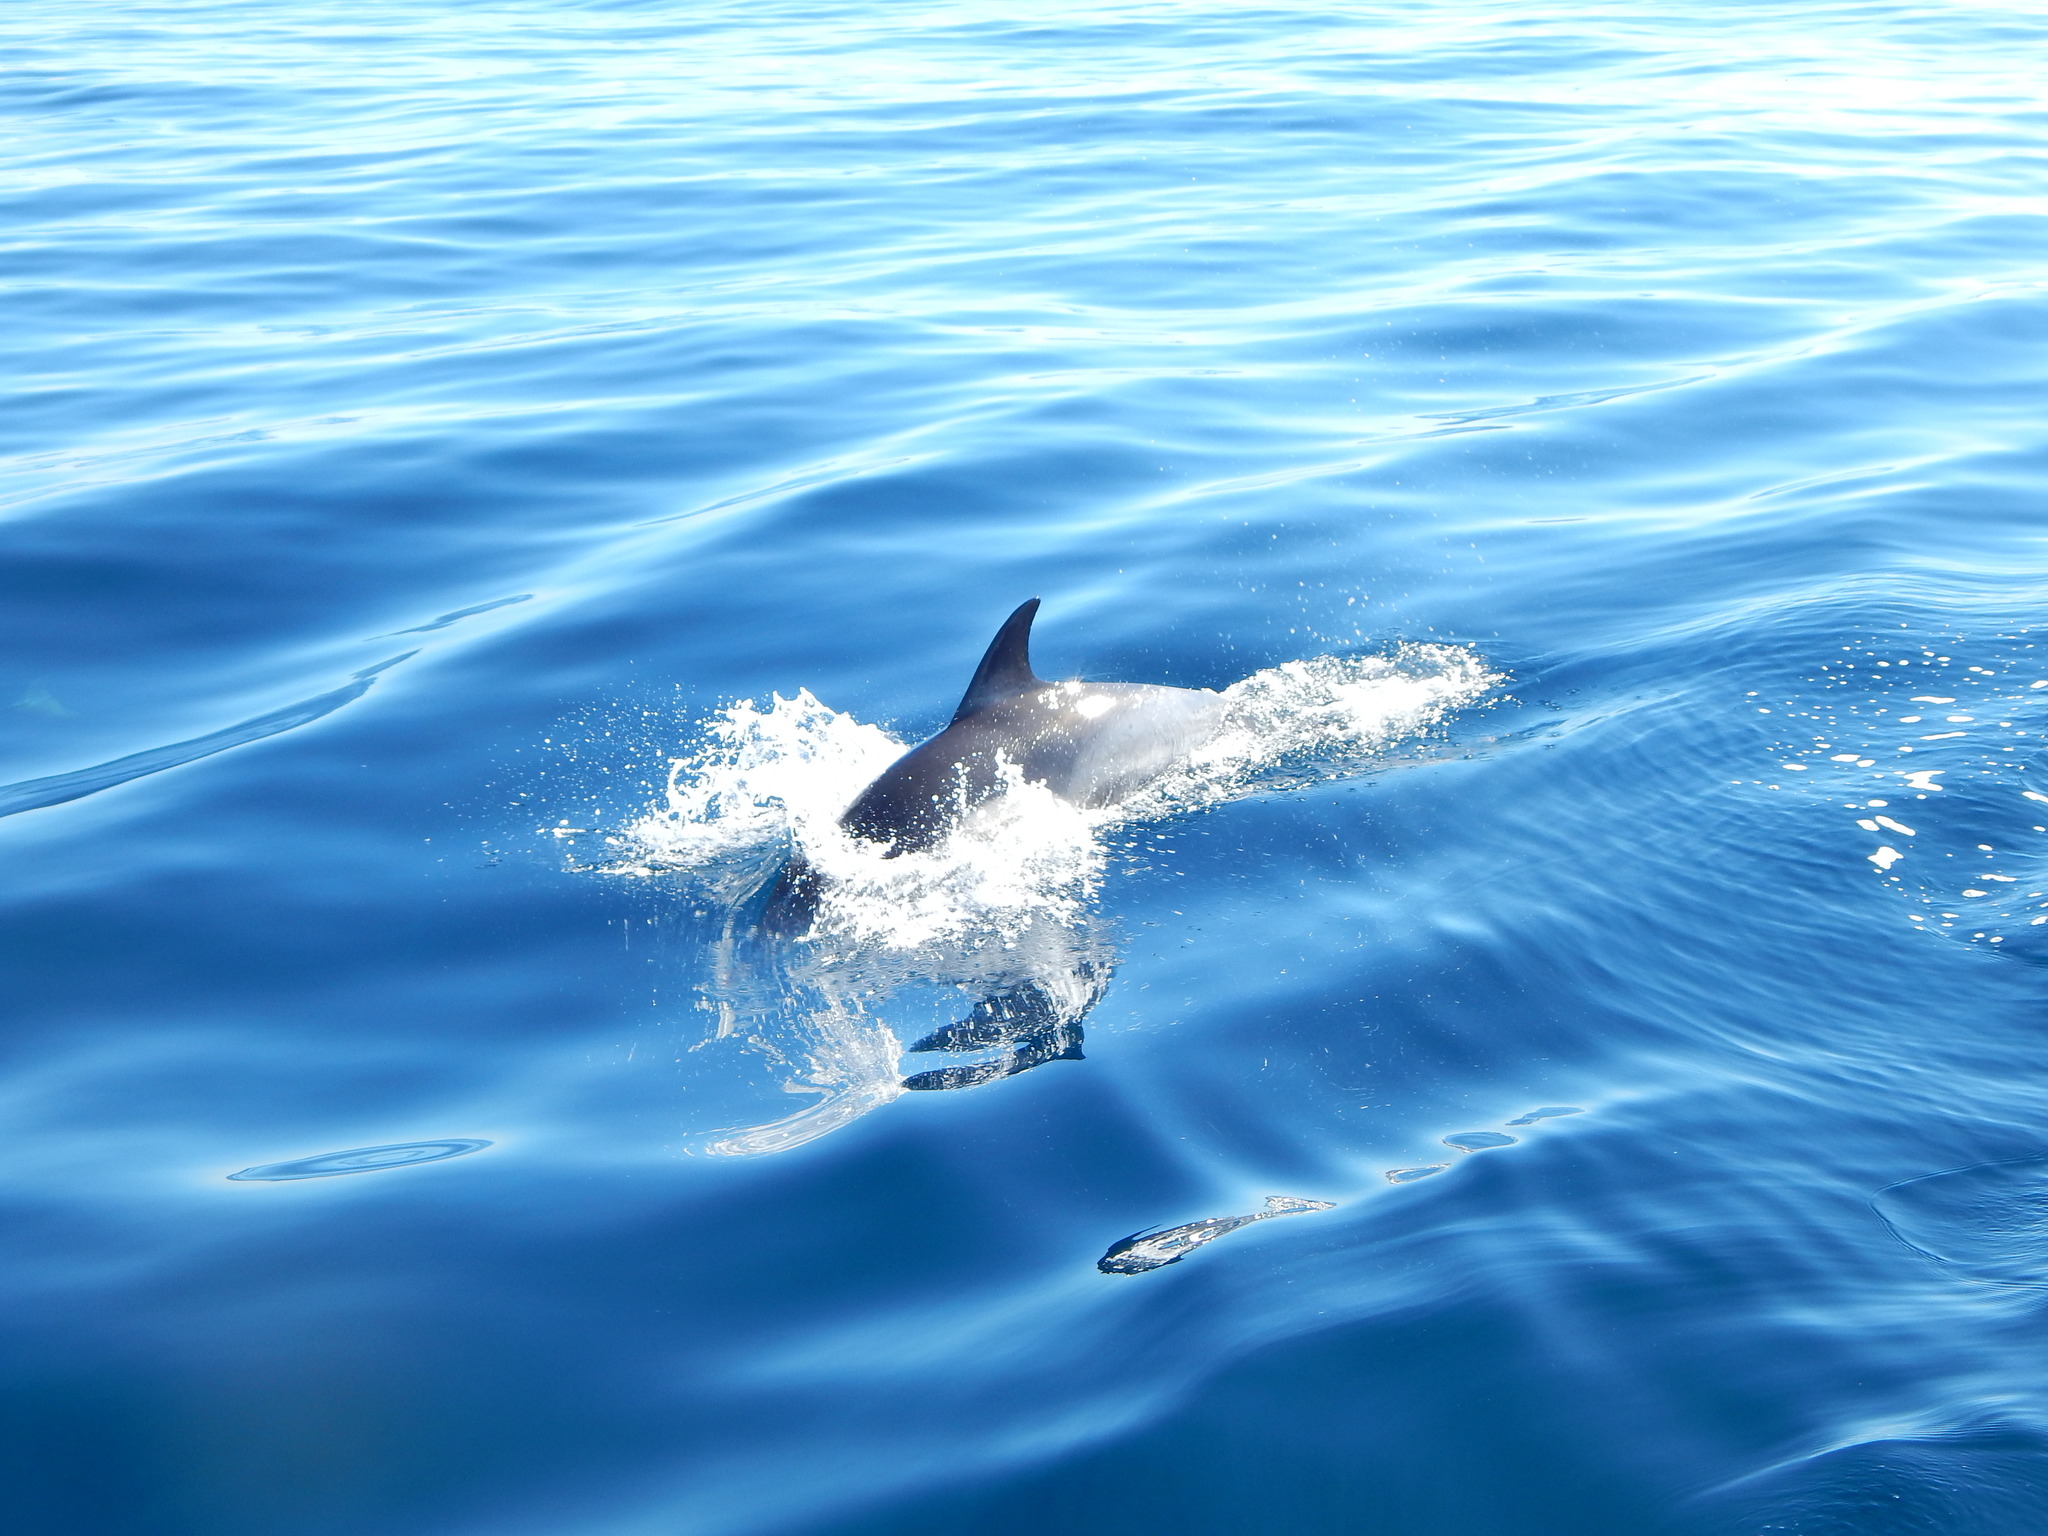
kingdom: Animalia
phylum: Chordata
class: Mammalia
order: Cetacea
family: Delphinidae
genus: Delphinus
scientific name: Delphinus delphis
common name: Common dolphin
